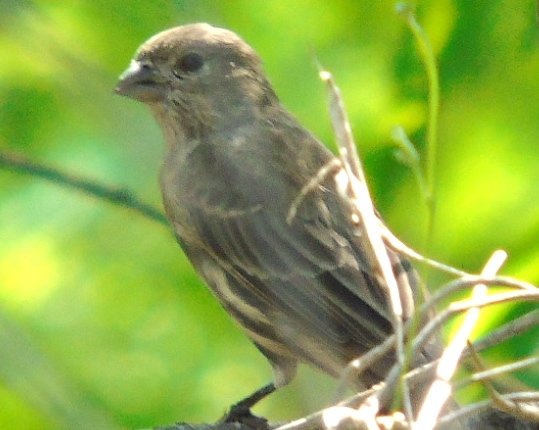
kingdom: Animalia
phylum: Chordata
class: Aves
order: Passeriformes
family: Fringillidae
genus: Haemorhous
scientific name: Haemorhous mexicanus
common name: House finch
